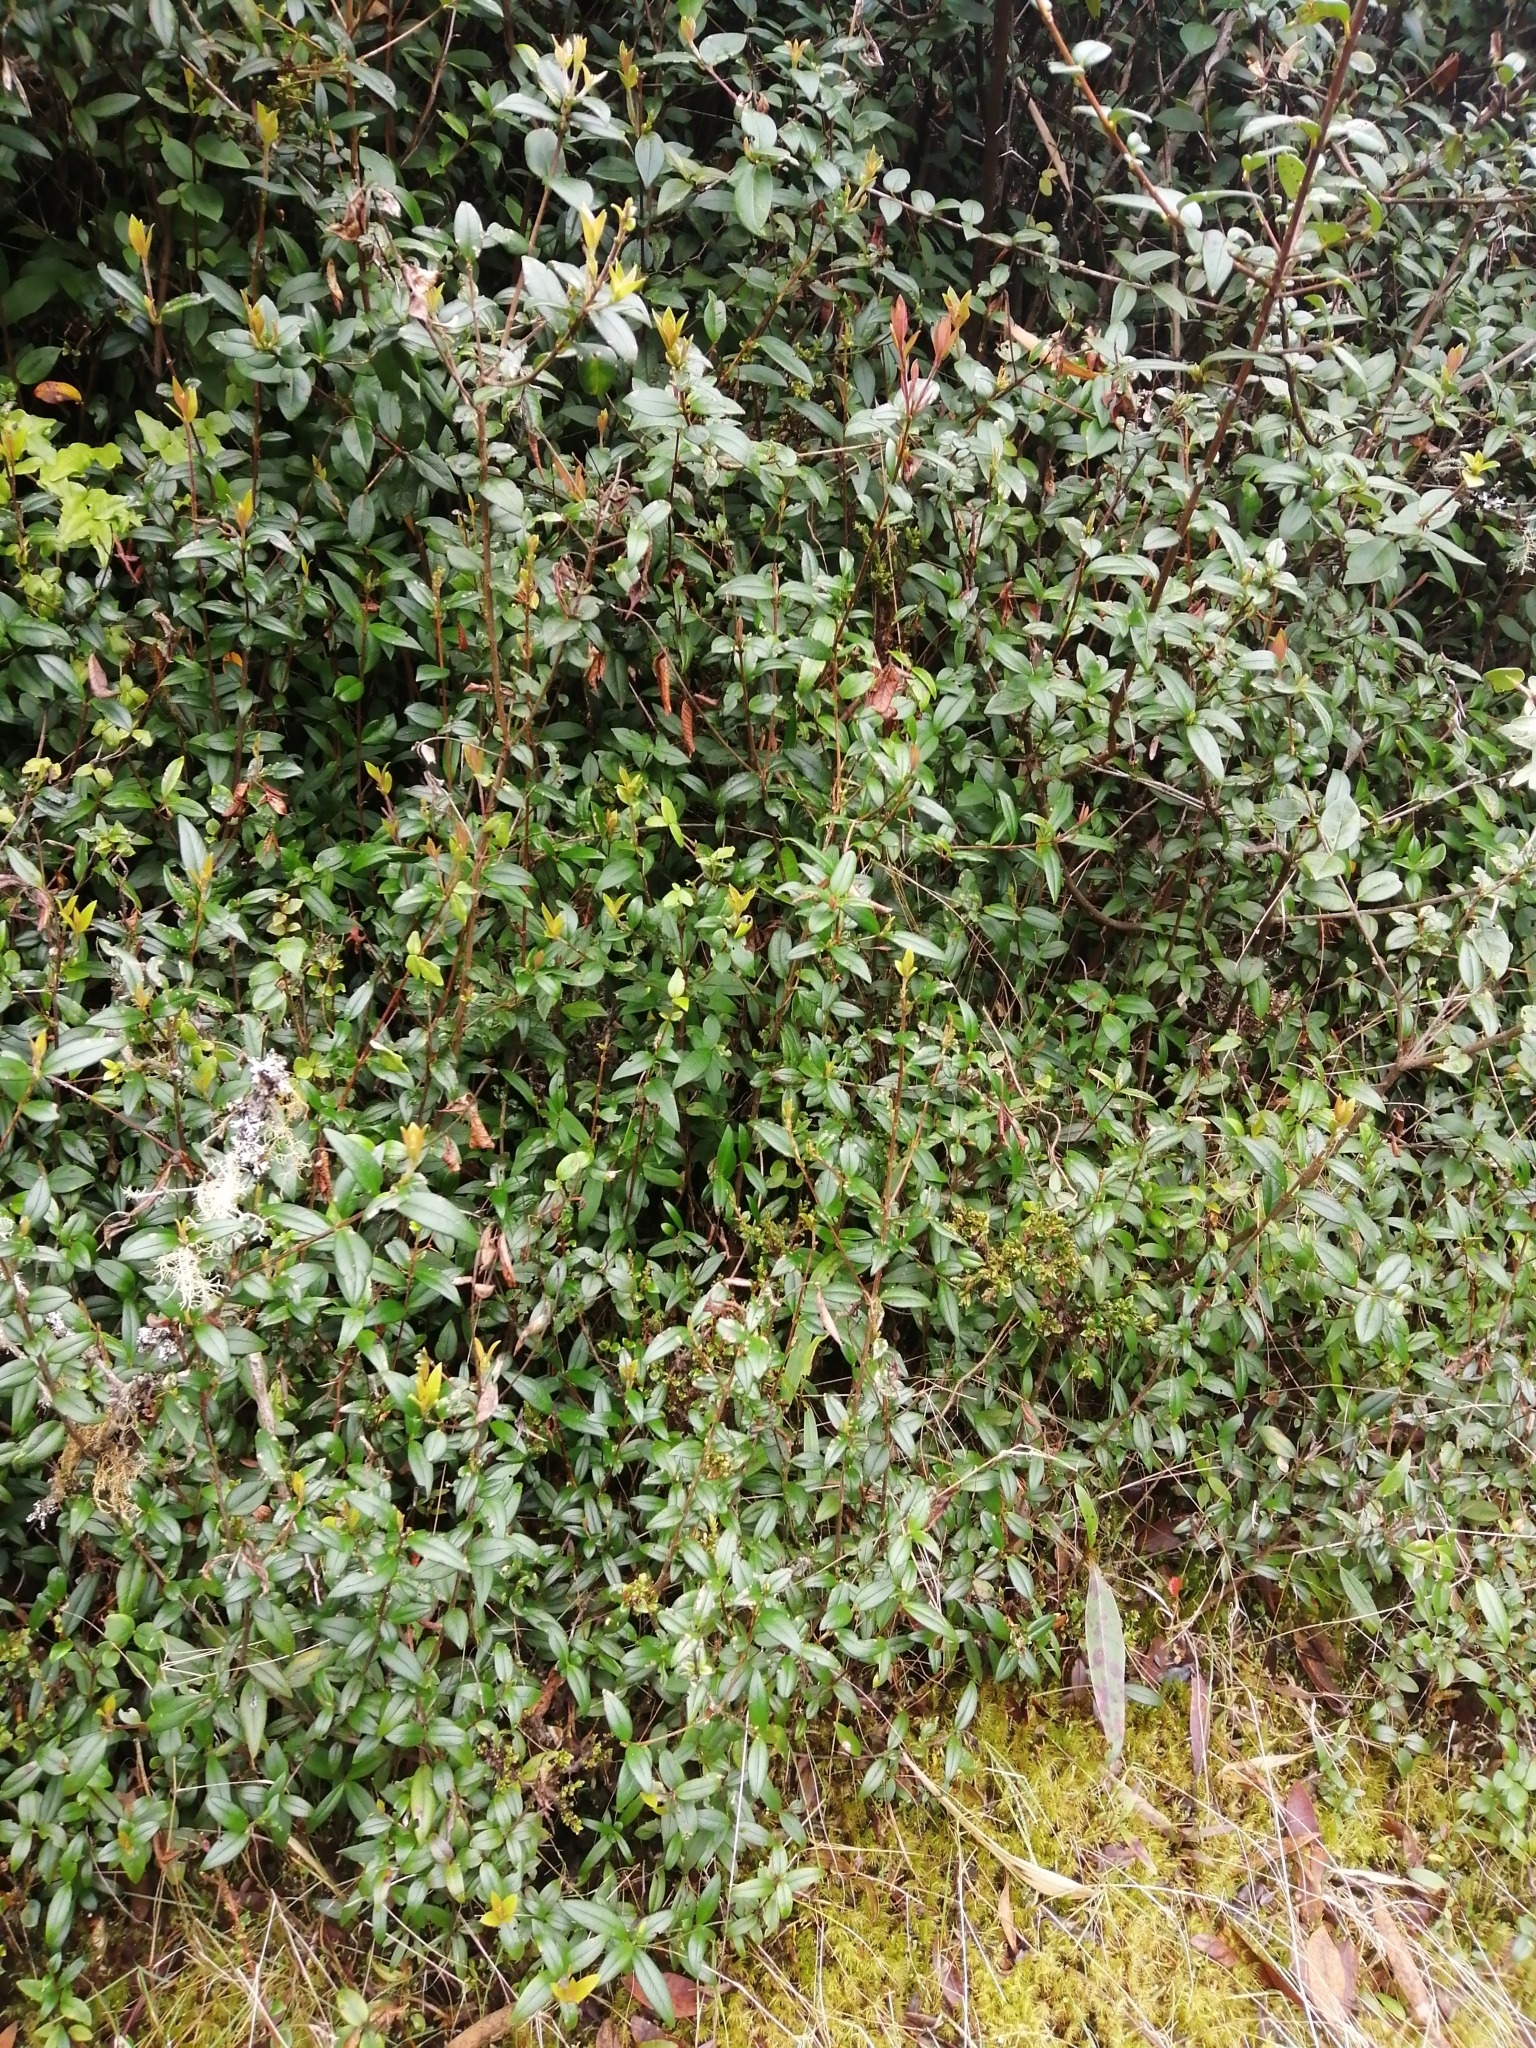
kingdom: Plantae
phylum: Tracheophyta
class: Magnoliopsida
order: Myrtales
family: Myrtaceae
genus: Ugni
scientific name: Ugni molinae
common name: Chilean-guava
